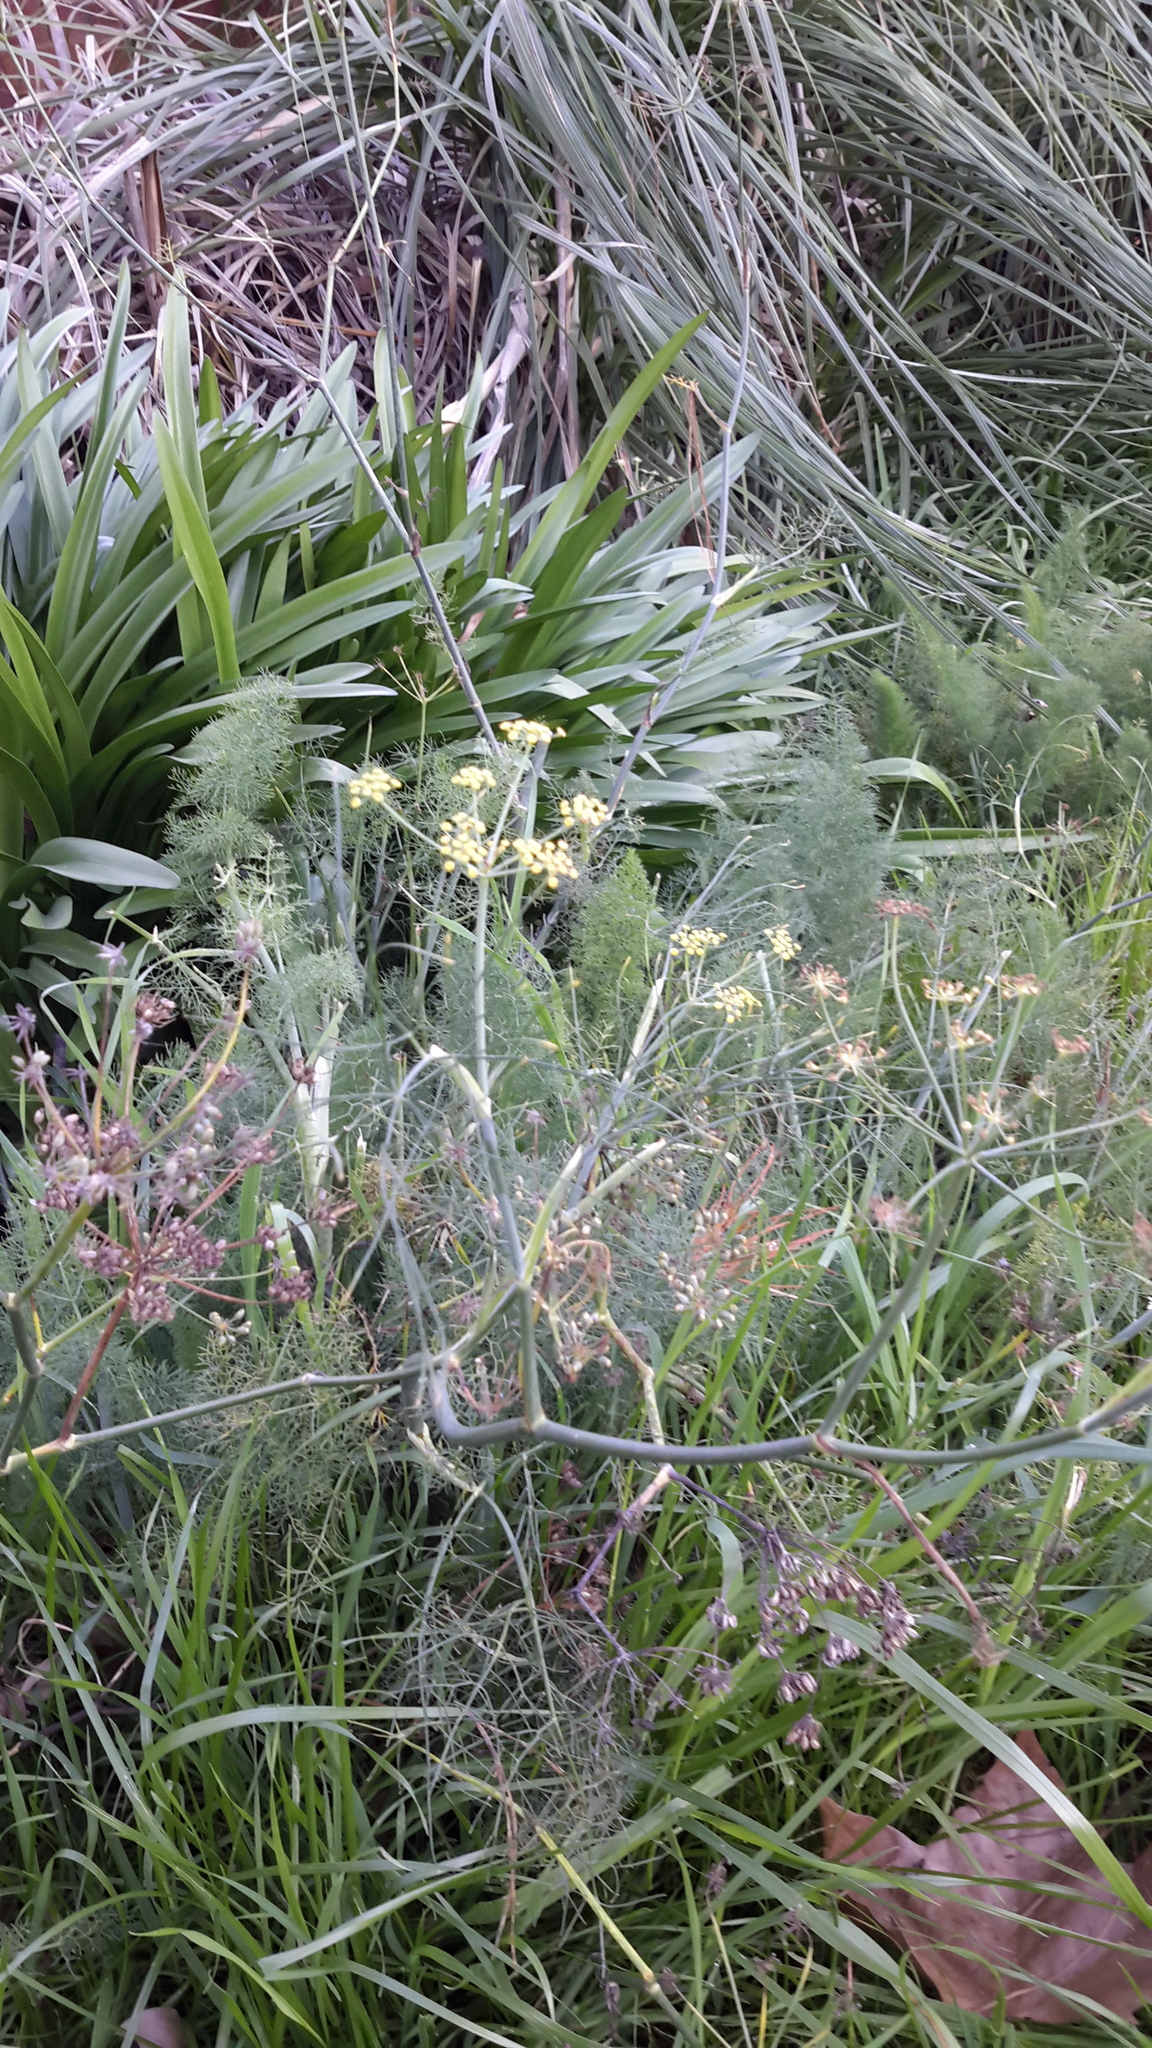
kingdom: Plantae
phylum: Tracheophyta
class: Magnoliopsida
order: Apiales
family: Apiaceae
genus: Foeniculum
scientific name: Foeniculum vulgare
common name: Fennel
